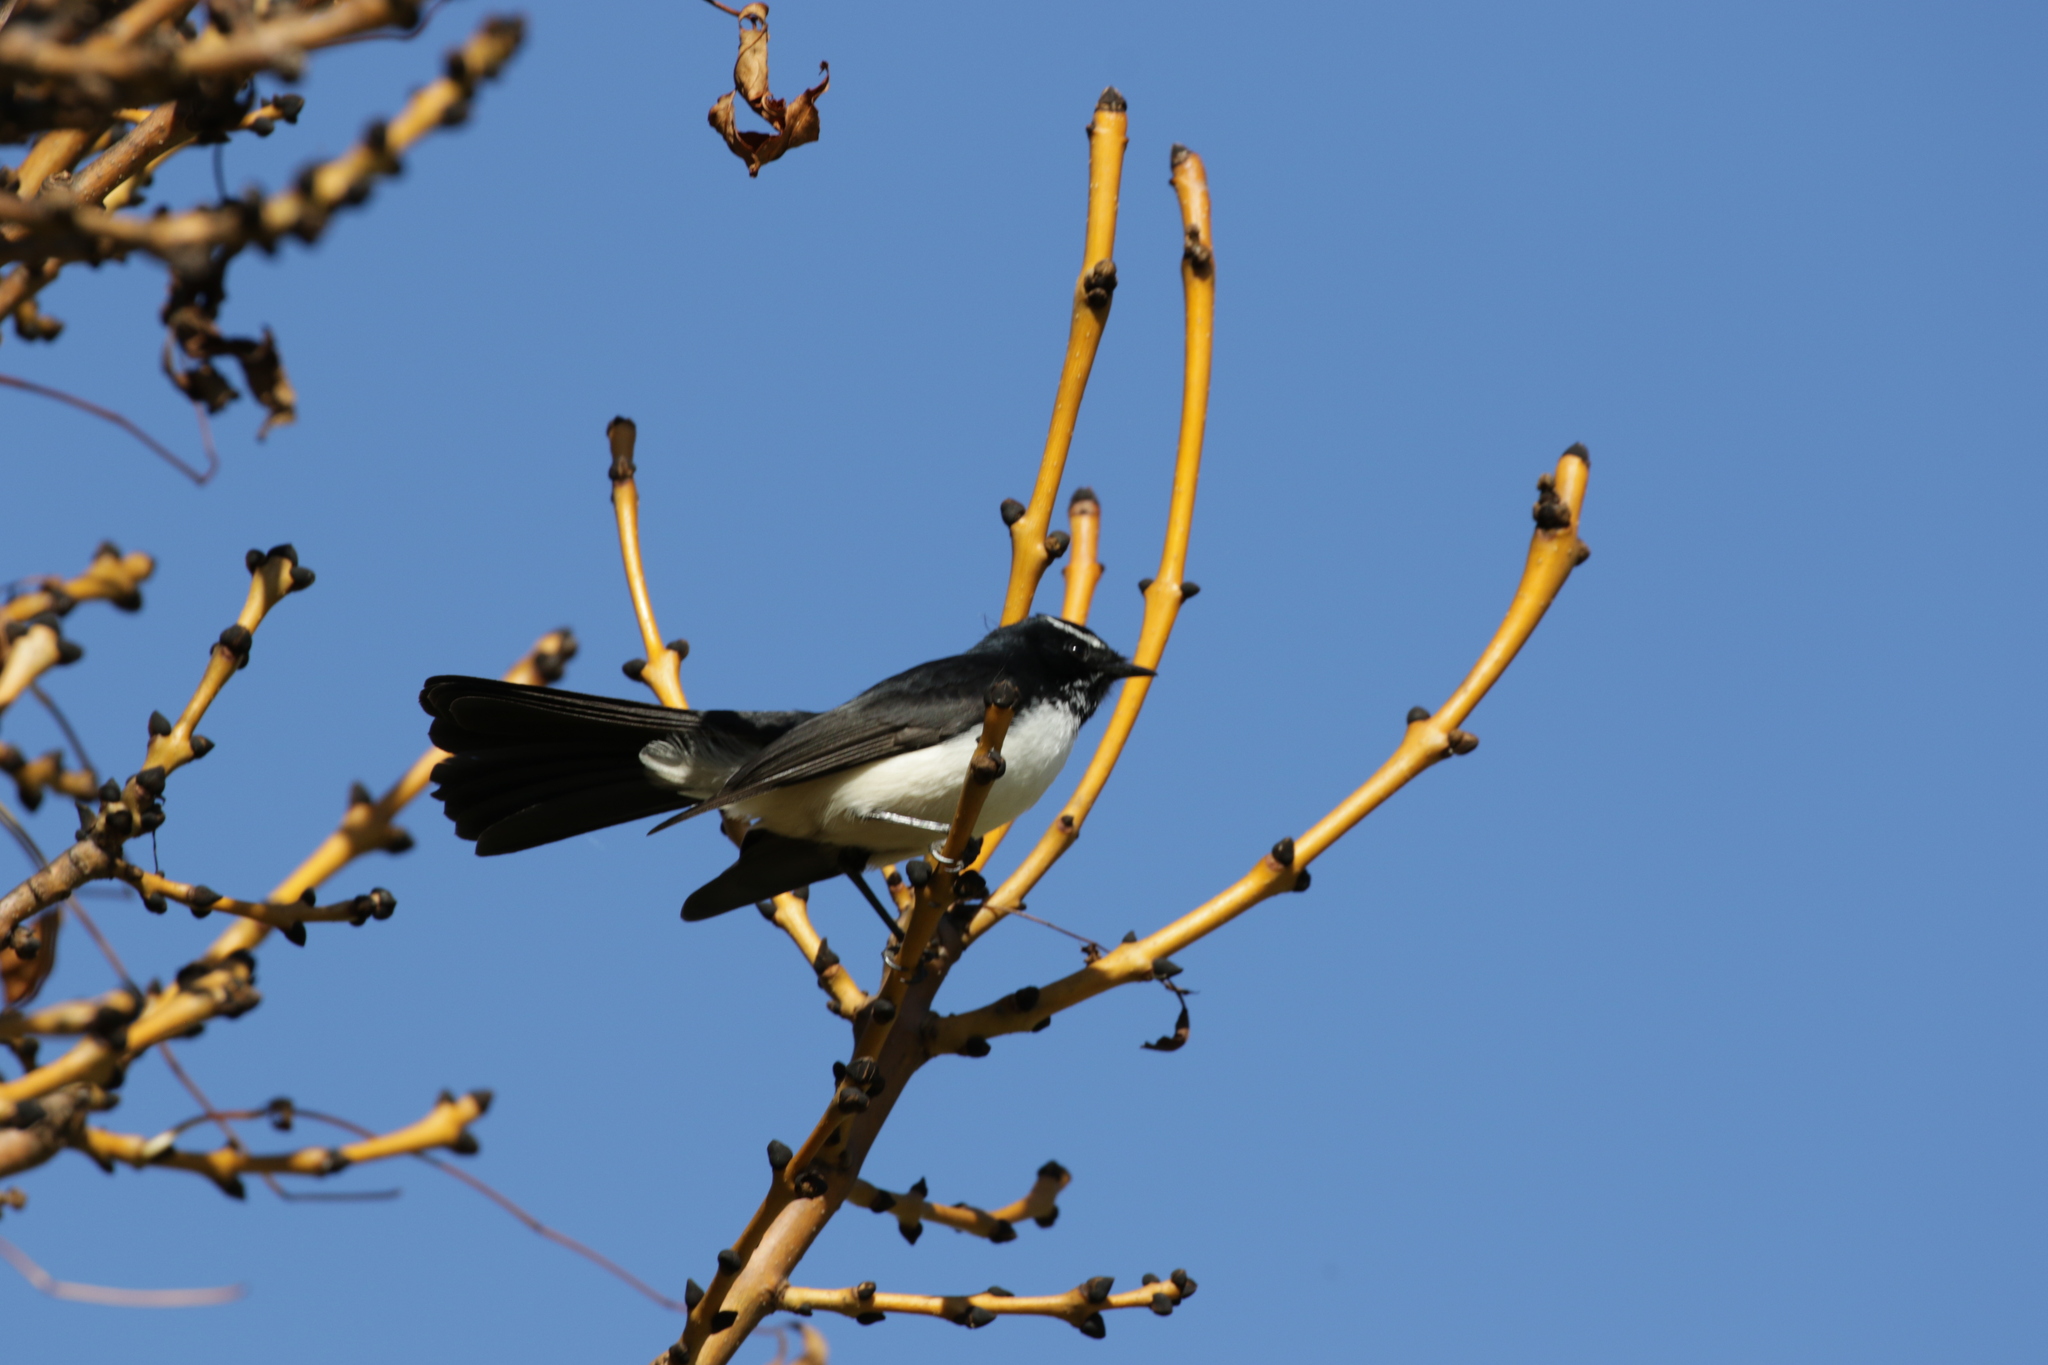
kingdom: Animalia
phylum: Chordata
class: Aves
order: Passeriformes
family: Rhipiduridae
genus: Rhipidura
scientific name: Rhipidura leucophrys
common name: Willie wagtail
